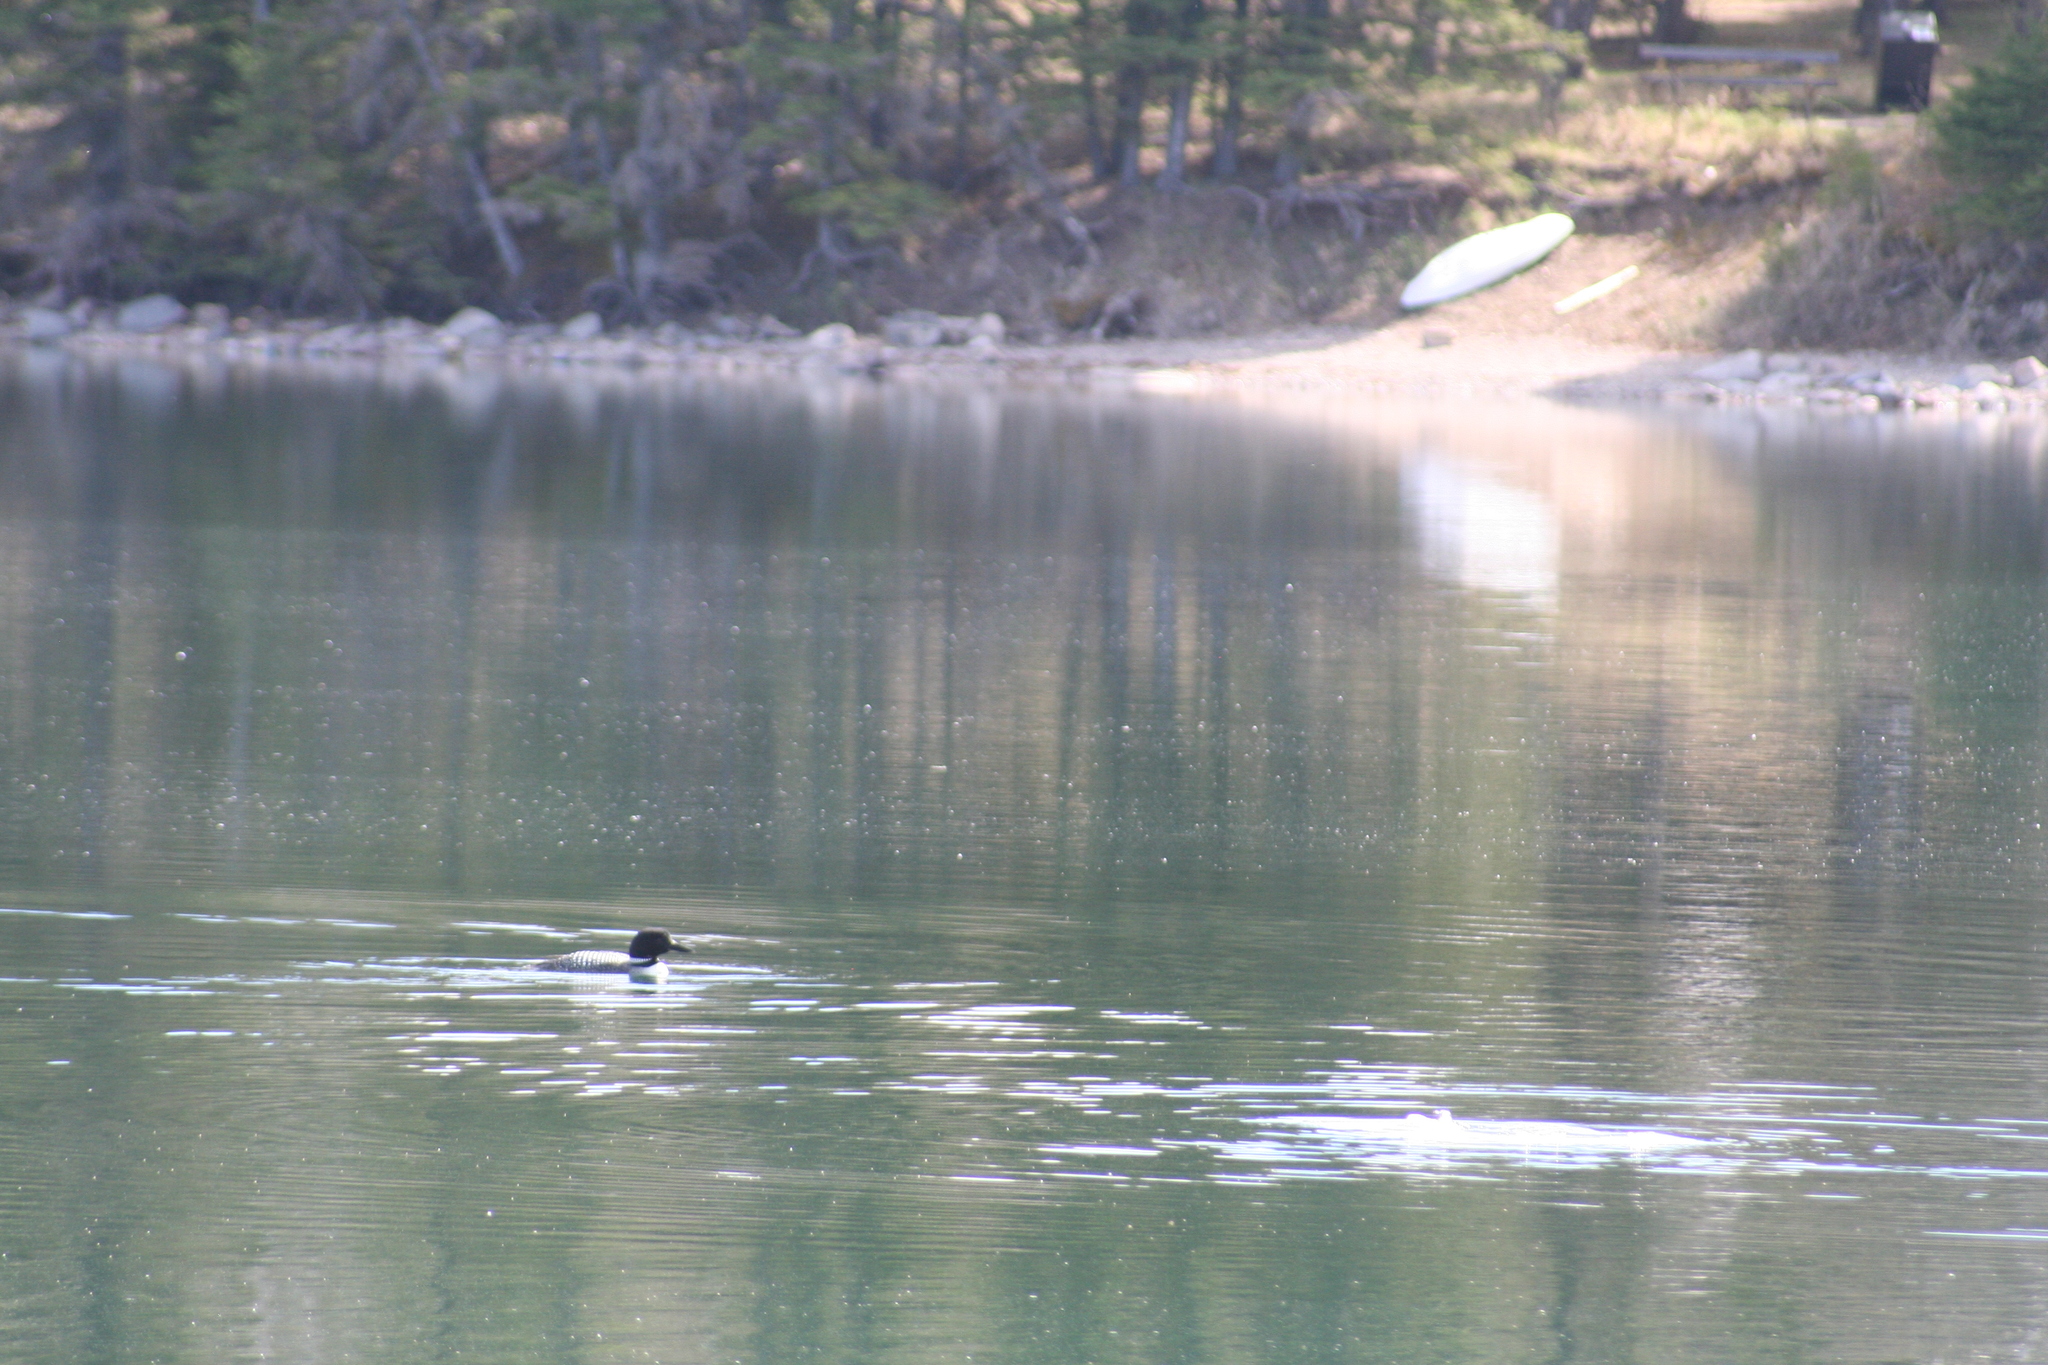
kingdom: Animalia
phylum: Chordata
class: Aves
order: Gaviiformes
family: Gaviidae
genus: Gavia
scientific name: Gavia immer
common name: Common loon
